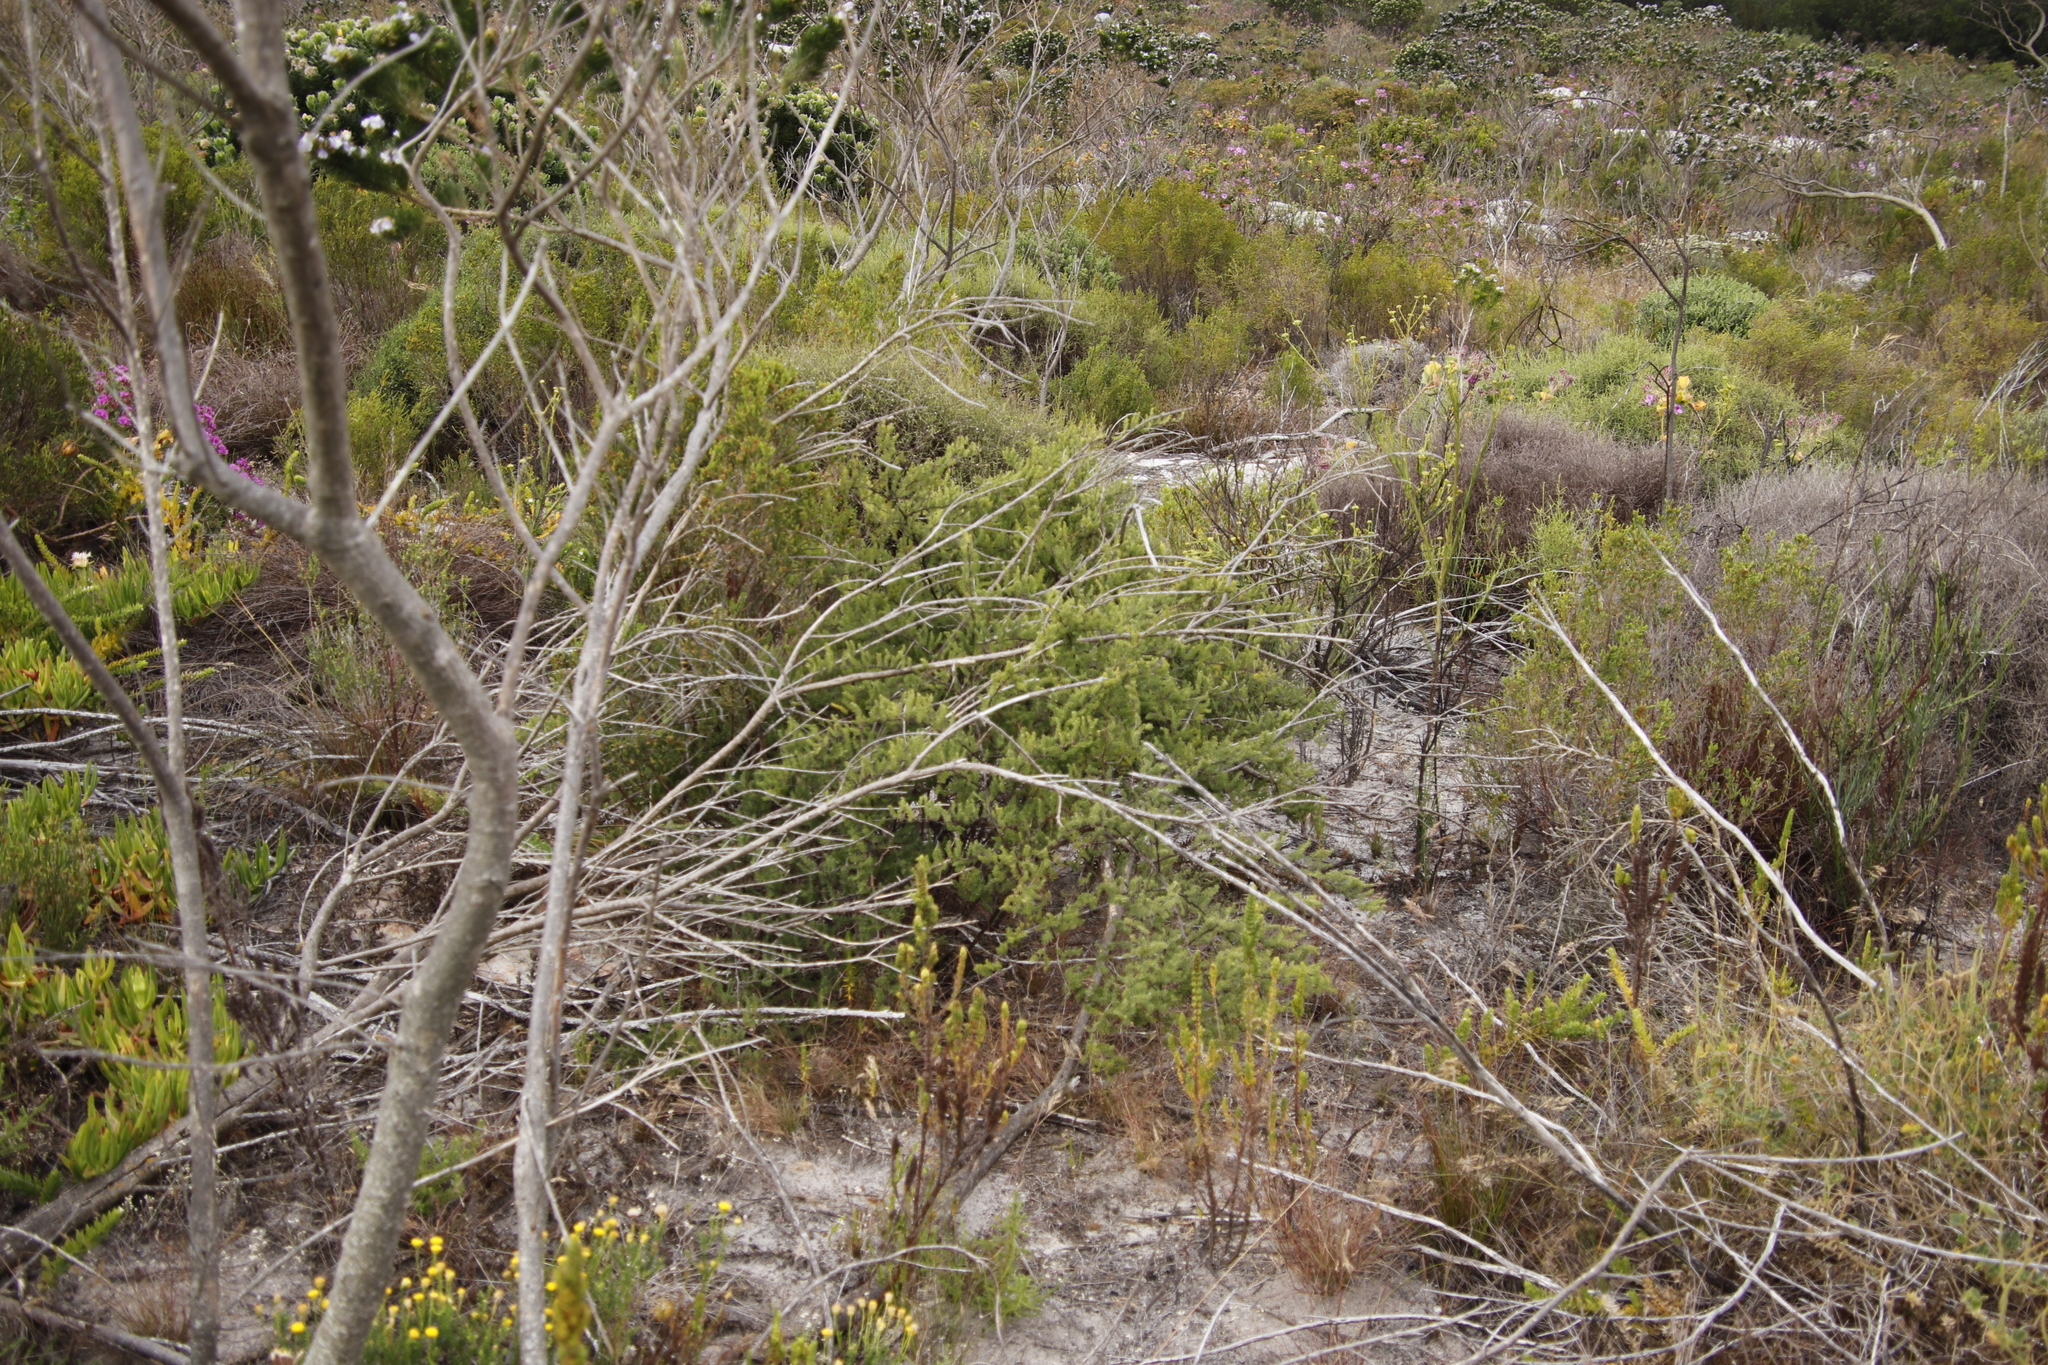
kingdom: Plantae
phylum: Tracheophyta
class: Liliopsida
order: Asparagales
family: Asparagaceae
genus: Asparagus
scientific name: Asparagus rubicundus
